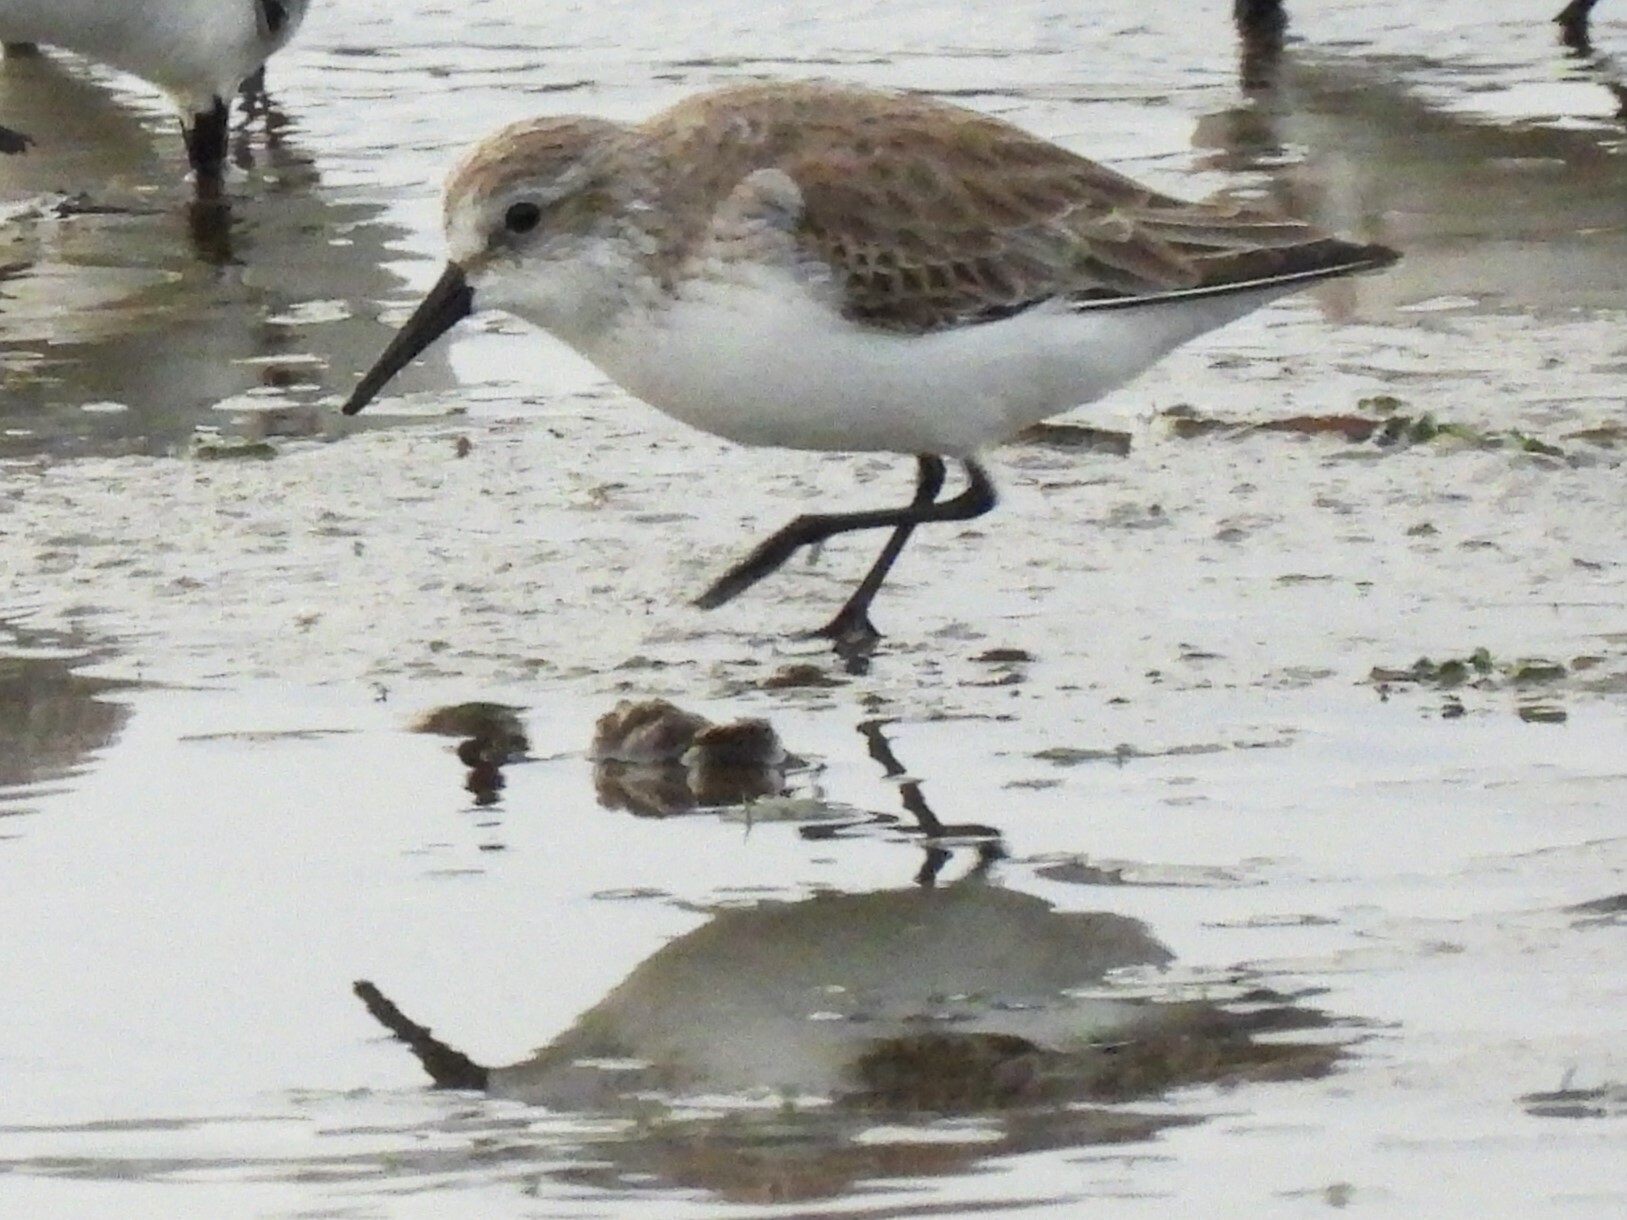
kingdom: Animalia
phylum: Chordata
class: Aves
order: Charadriiformes
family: Scolopacidae
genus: Calidris
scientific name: Calidris mauri
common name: Western sandpiper
